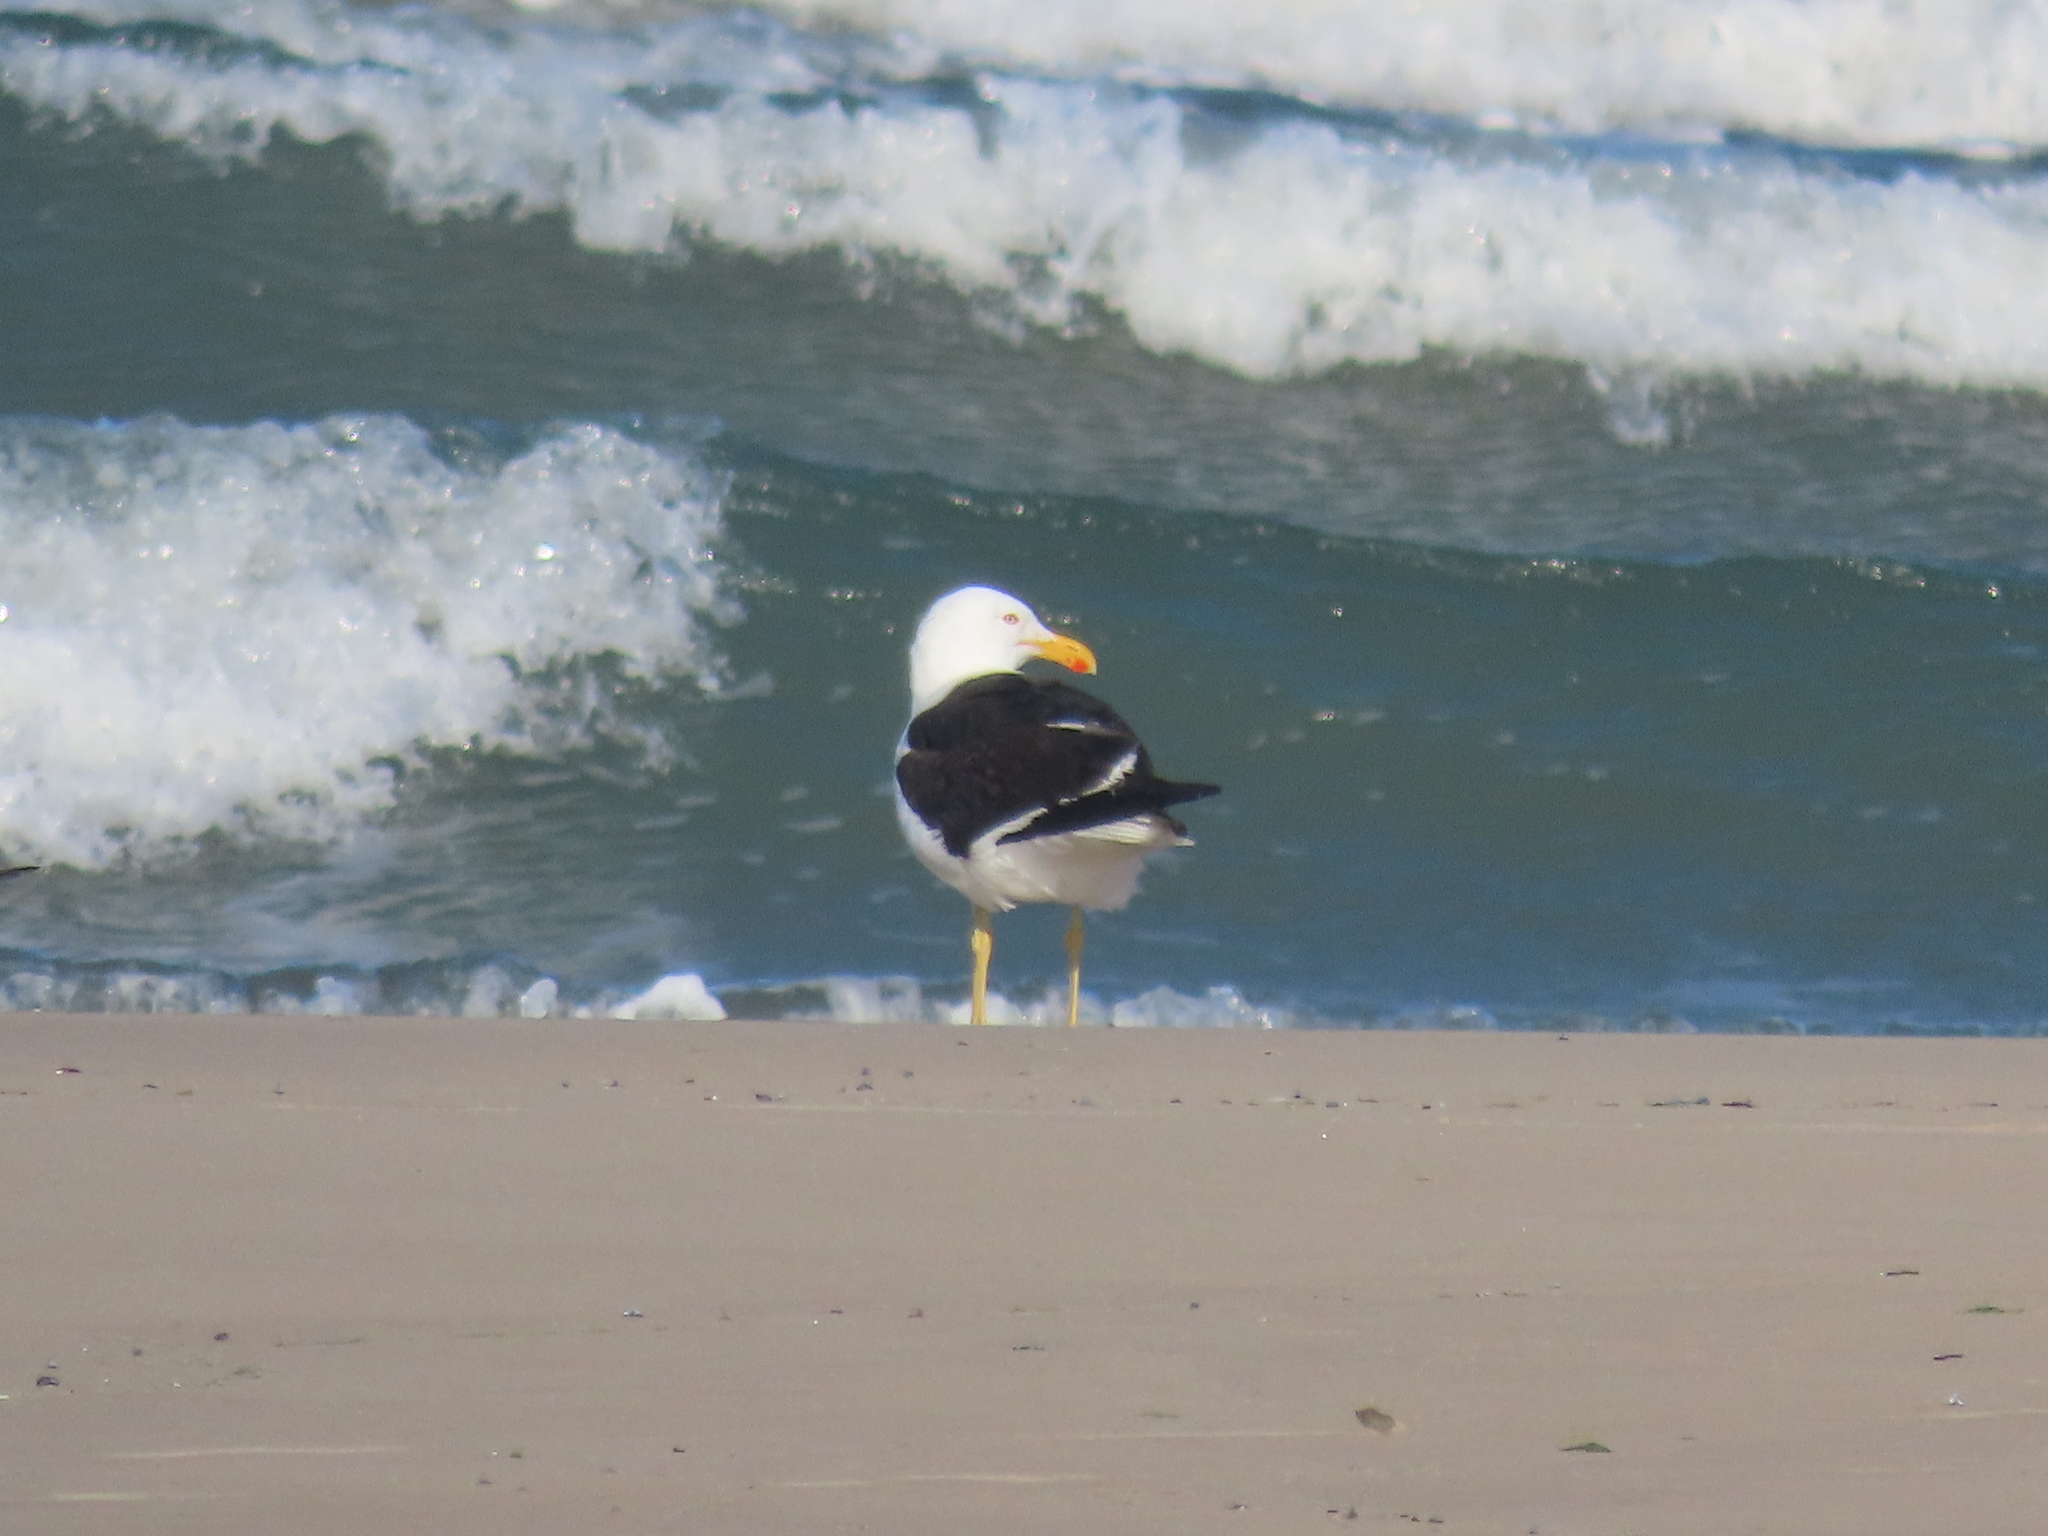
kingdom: Animalia
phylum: Chordata
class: Aves
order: Charadriiformes
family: Laridae
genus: Larus
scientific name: Larus dominicanus
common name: Kelp gull
